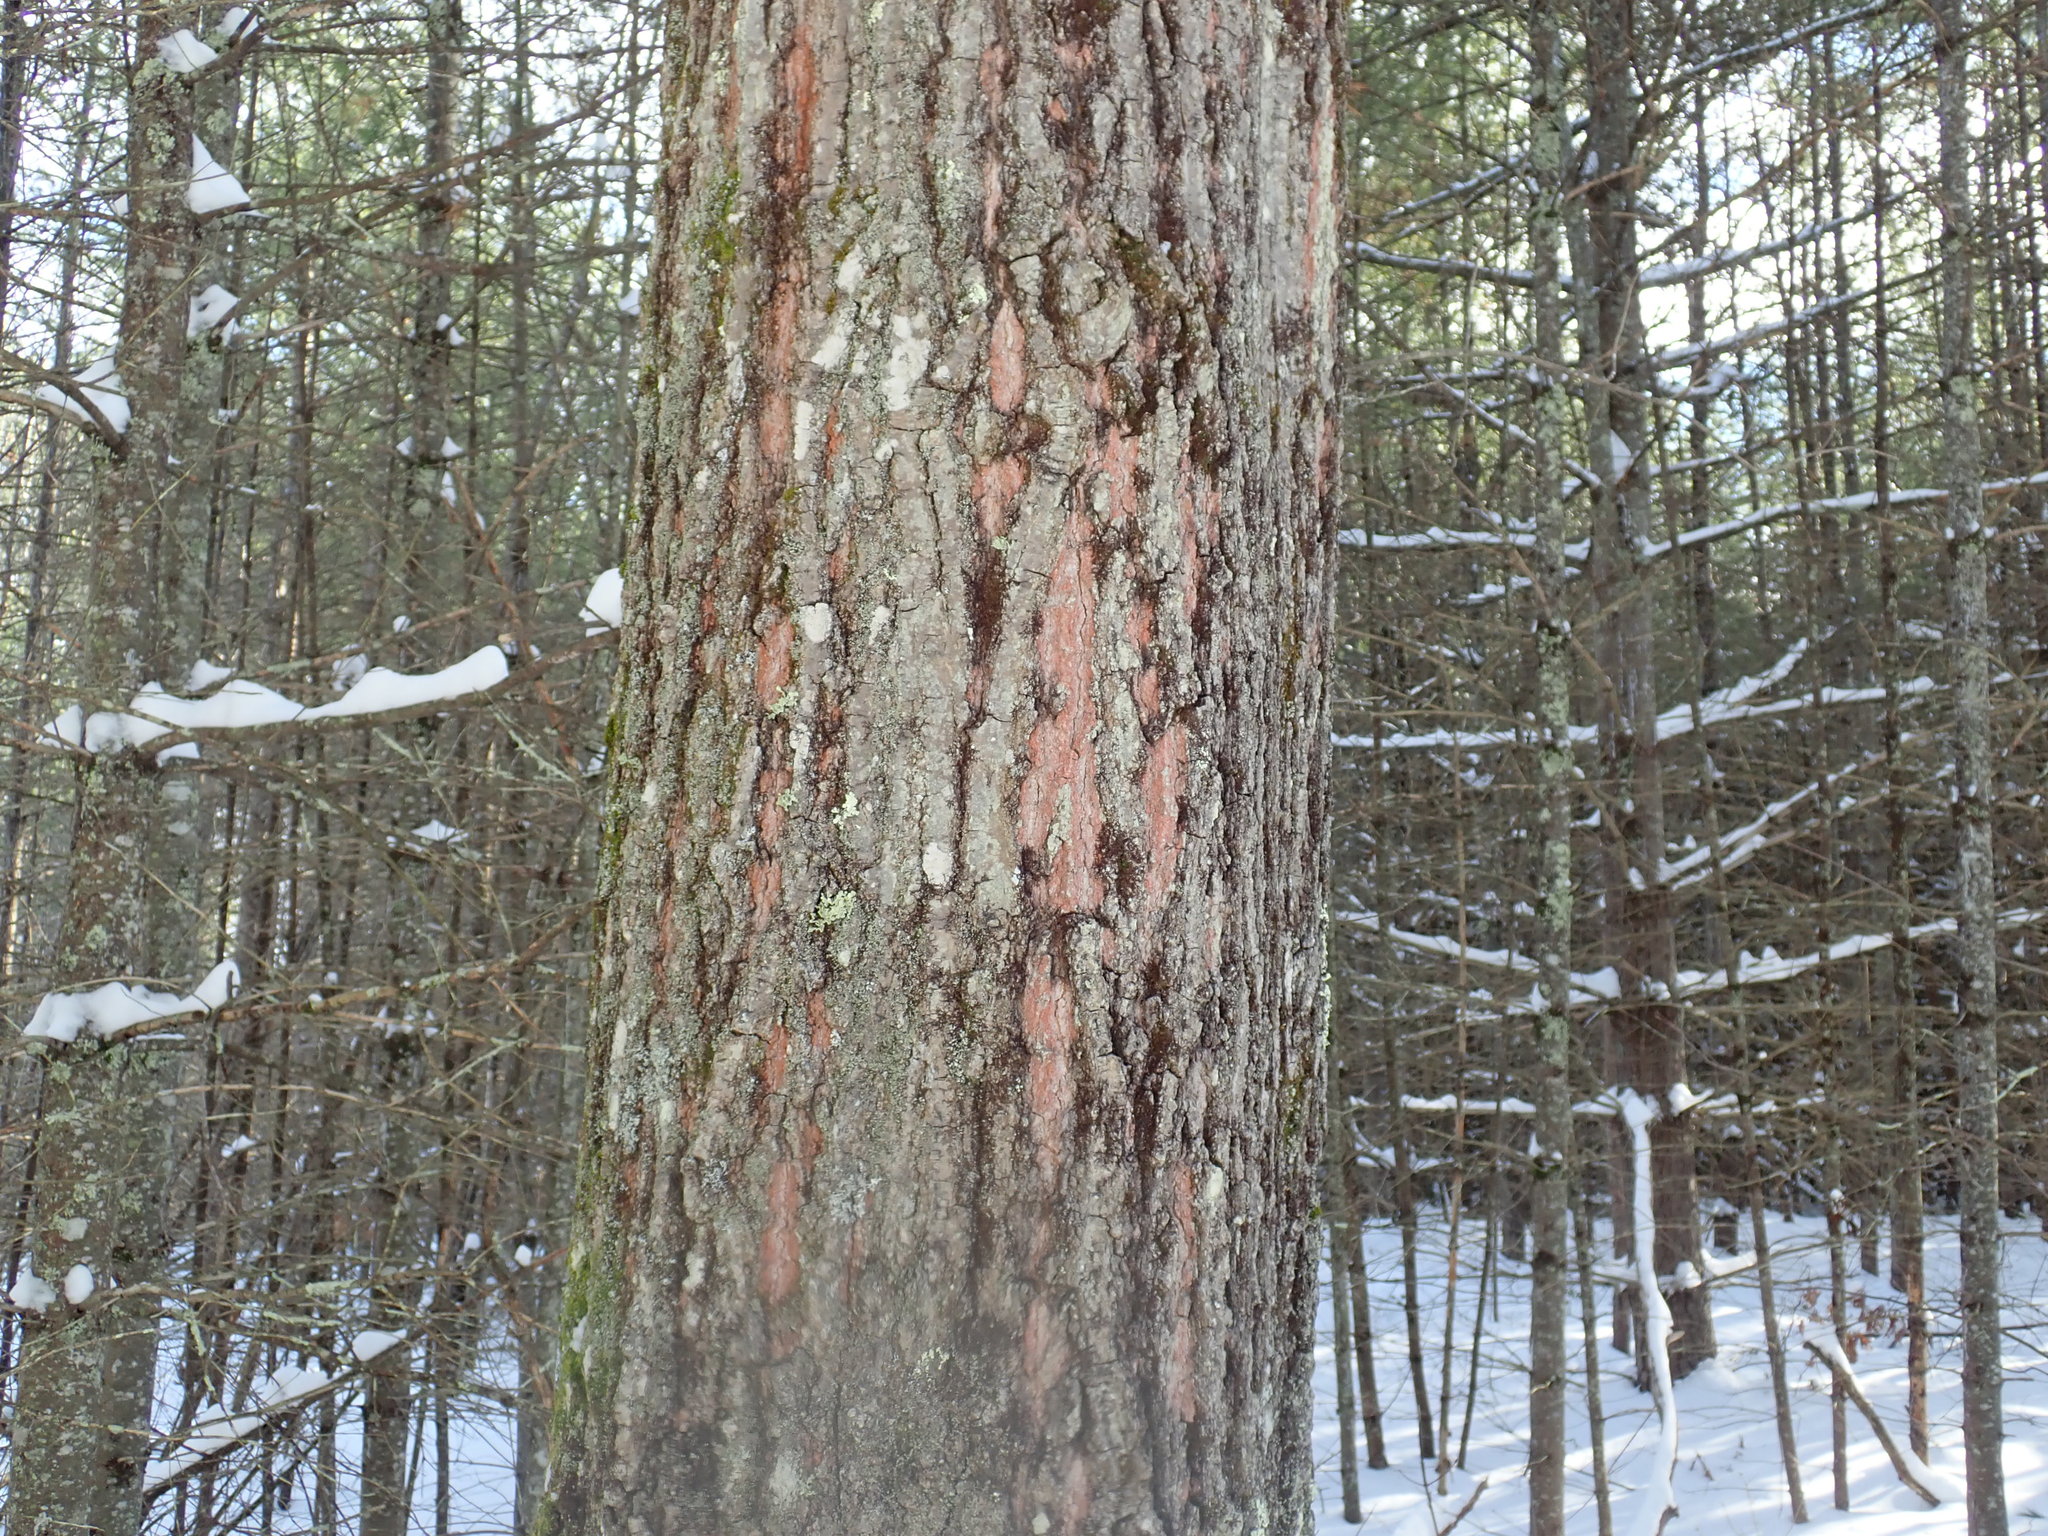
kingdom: Plantae
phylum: Tracheophyta
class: Magnoliopsida
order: Fagales
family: Fagaceae
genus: Quercus
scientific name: Quercus rubra
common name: Red oak
